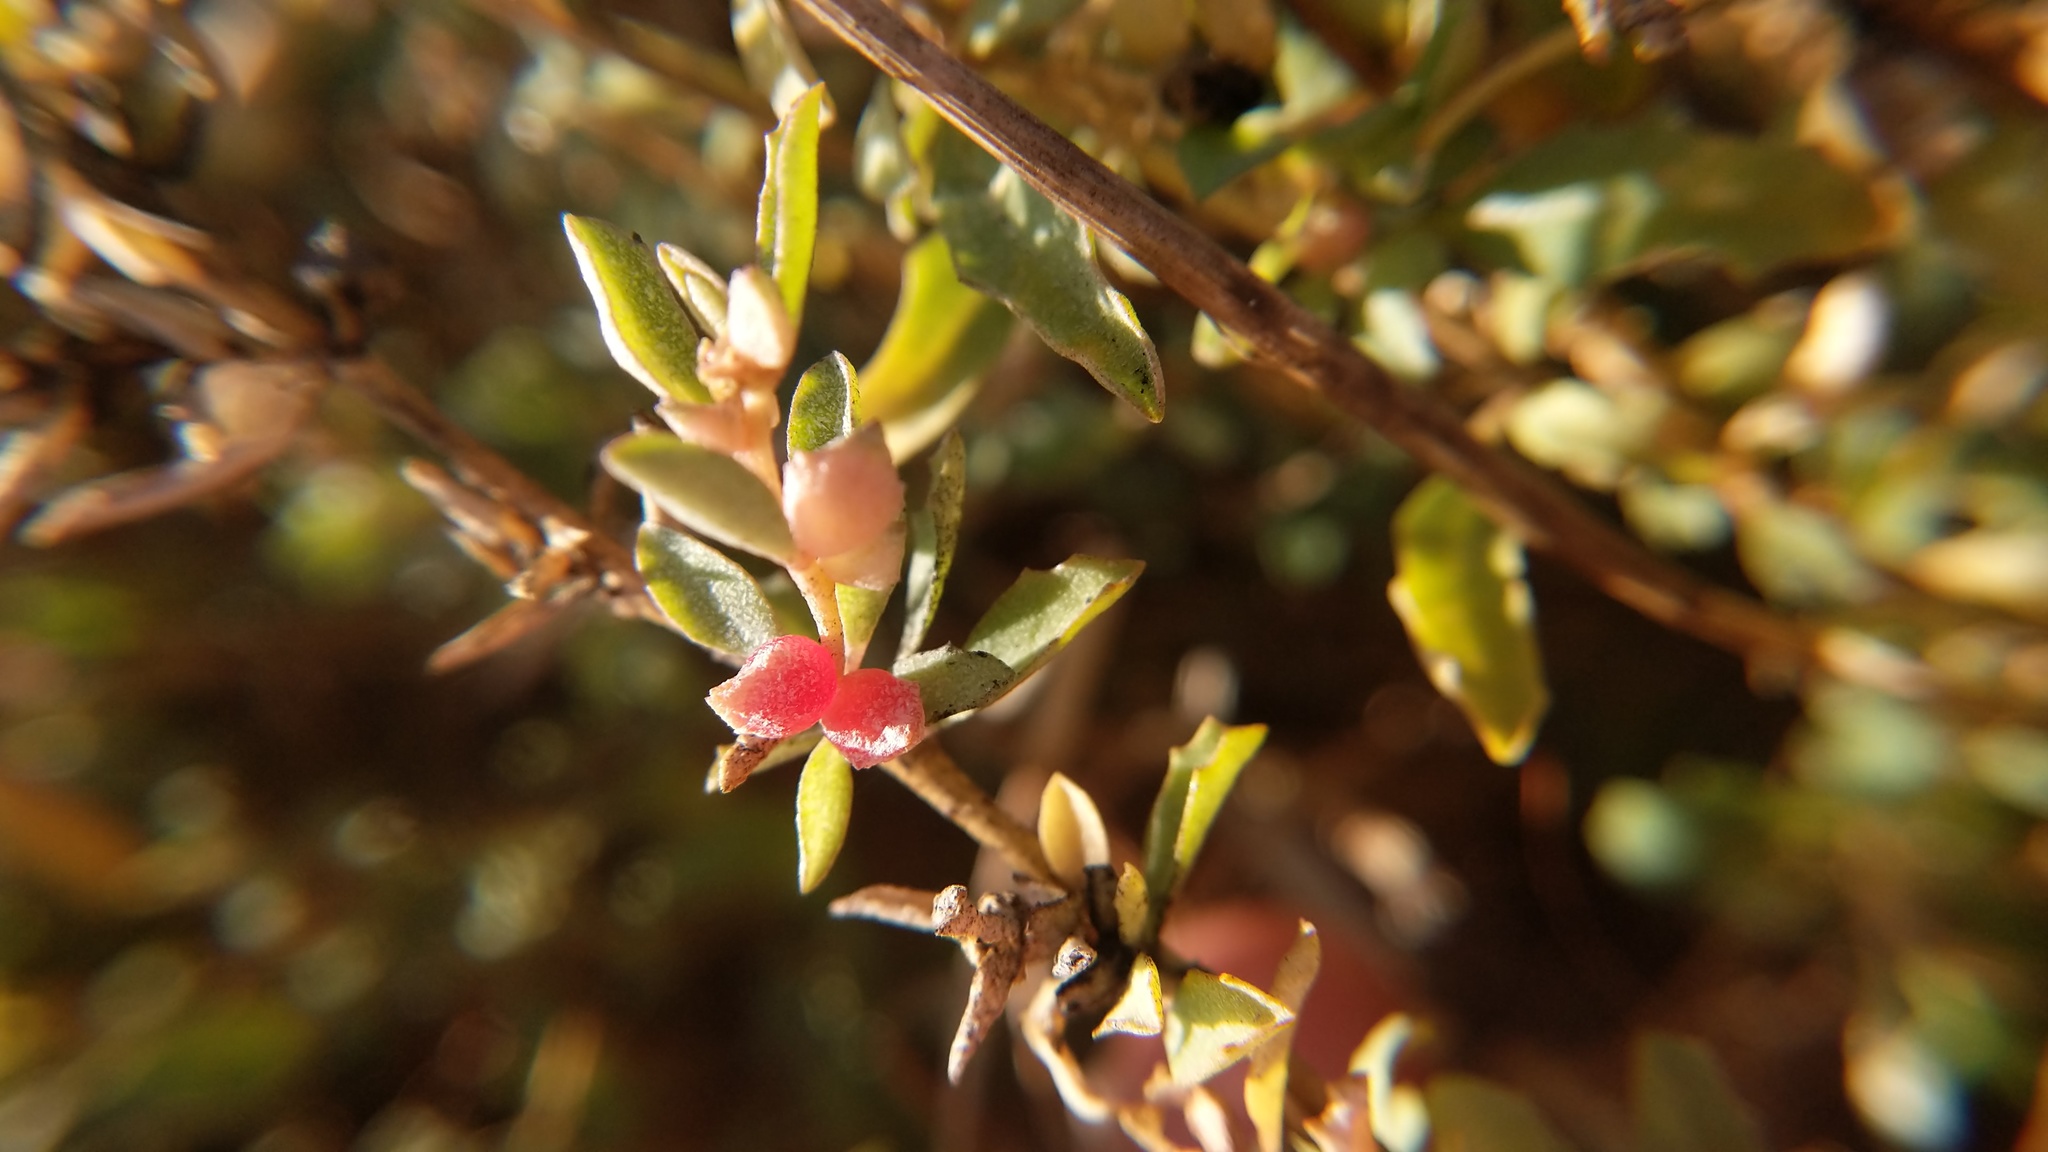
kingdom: Plantae
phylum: Tracheophyta
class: Magnoliopsida
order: Caryophyllales
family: Amaranthaceae
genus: Atriplex
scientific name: Atriplex semibaccata
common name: Australian saltbush
